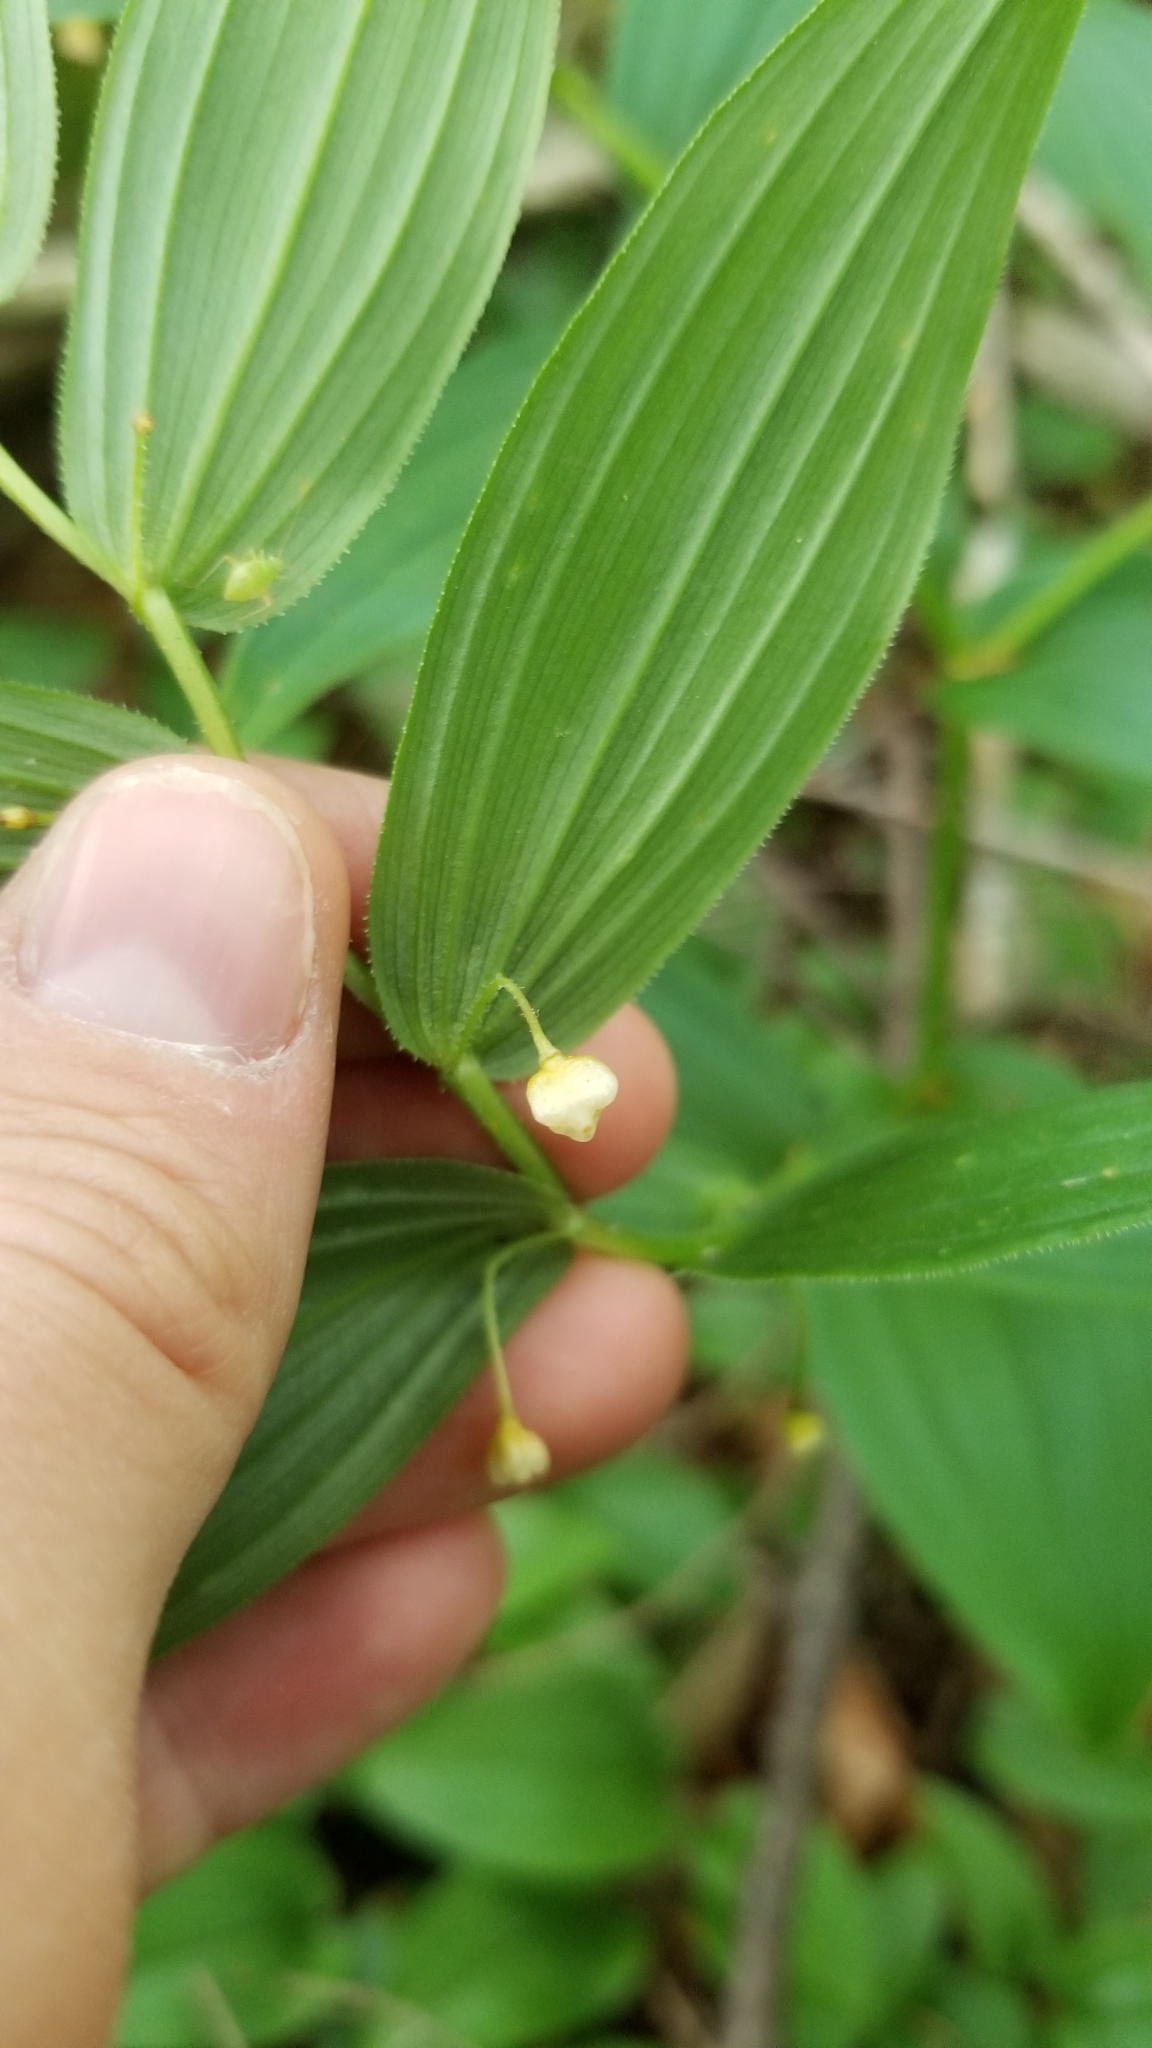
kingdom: Plantae
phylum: Tracheophyta
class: Liliopsida
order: Liliales
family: Liliaceae
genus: Streptopus
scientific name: Streptopus lanceolatus
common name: Rose mandarin
